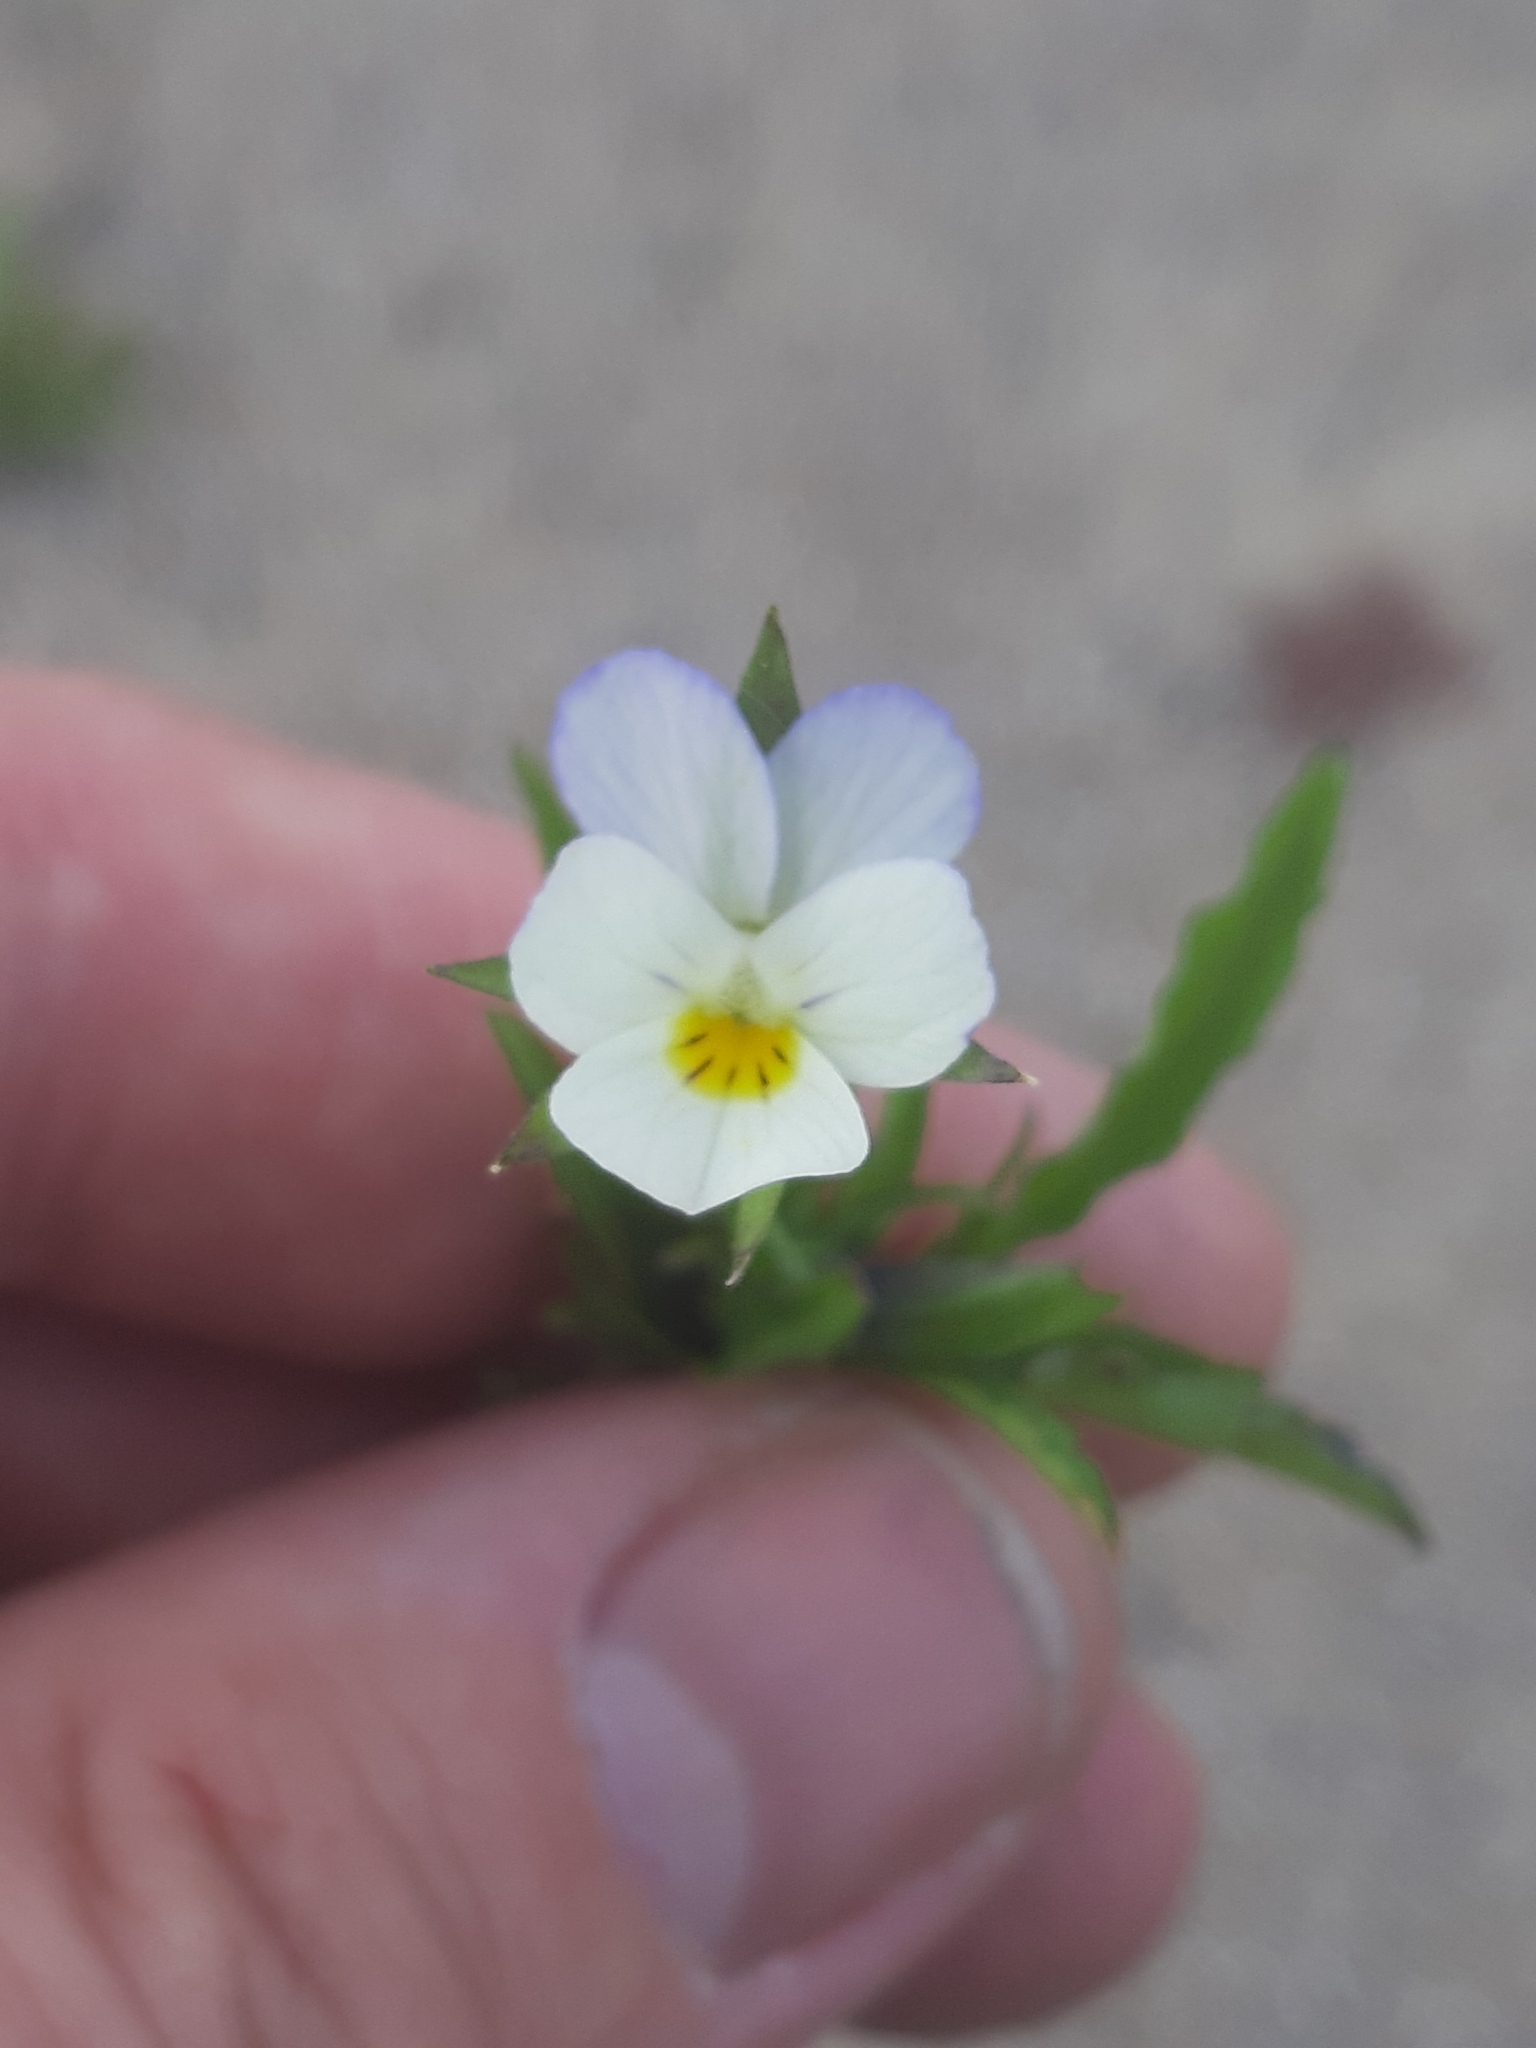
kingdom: Plantae
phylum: Tracheophyta
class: Magnoliopsida
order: Malpighiales
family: Violaceae
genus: Viola
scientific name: Viola arvensis
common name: Field pansy
